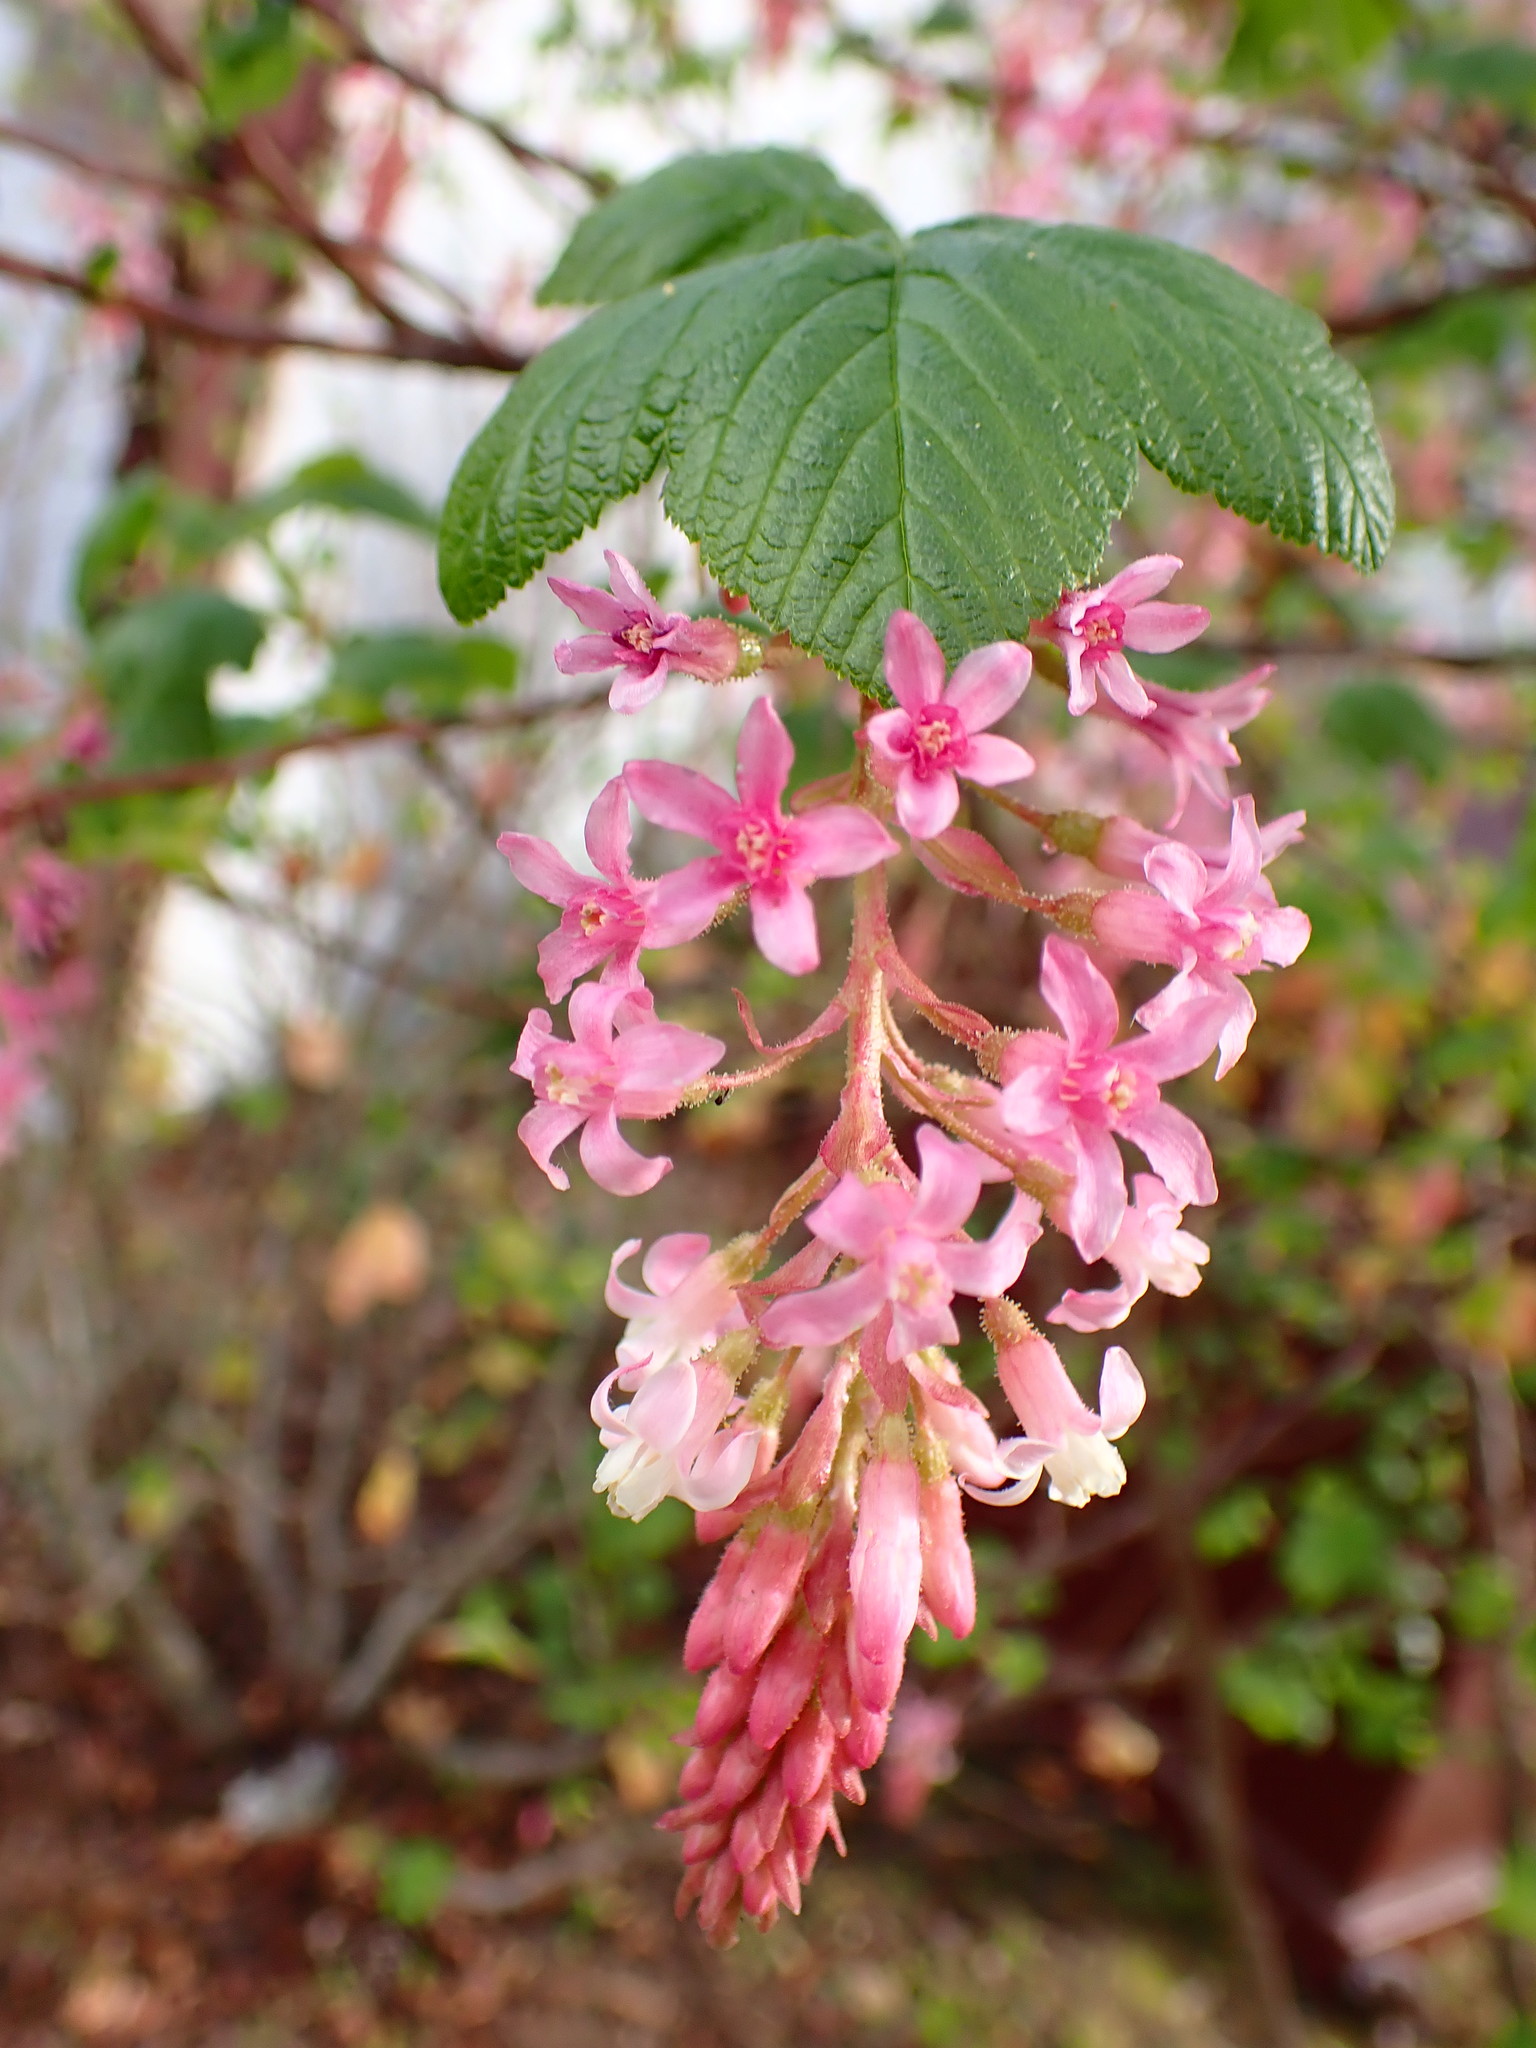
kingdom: Plantae
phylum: Tracheophyta
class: Magnoliopsida
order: Saxifragales
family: Grossulariaceae
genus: Ribes
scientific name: Ribes sanguineum
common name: Flowering currant
